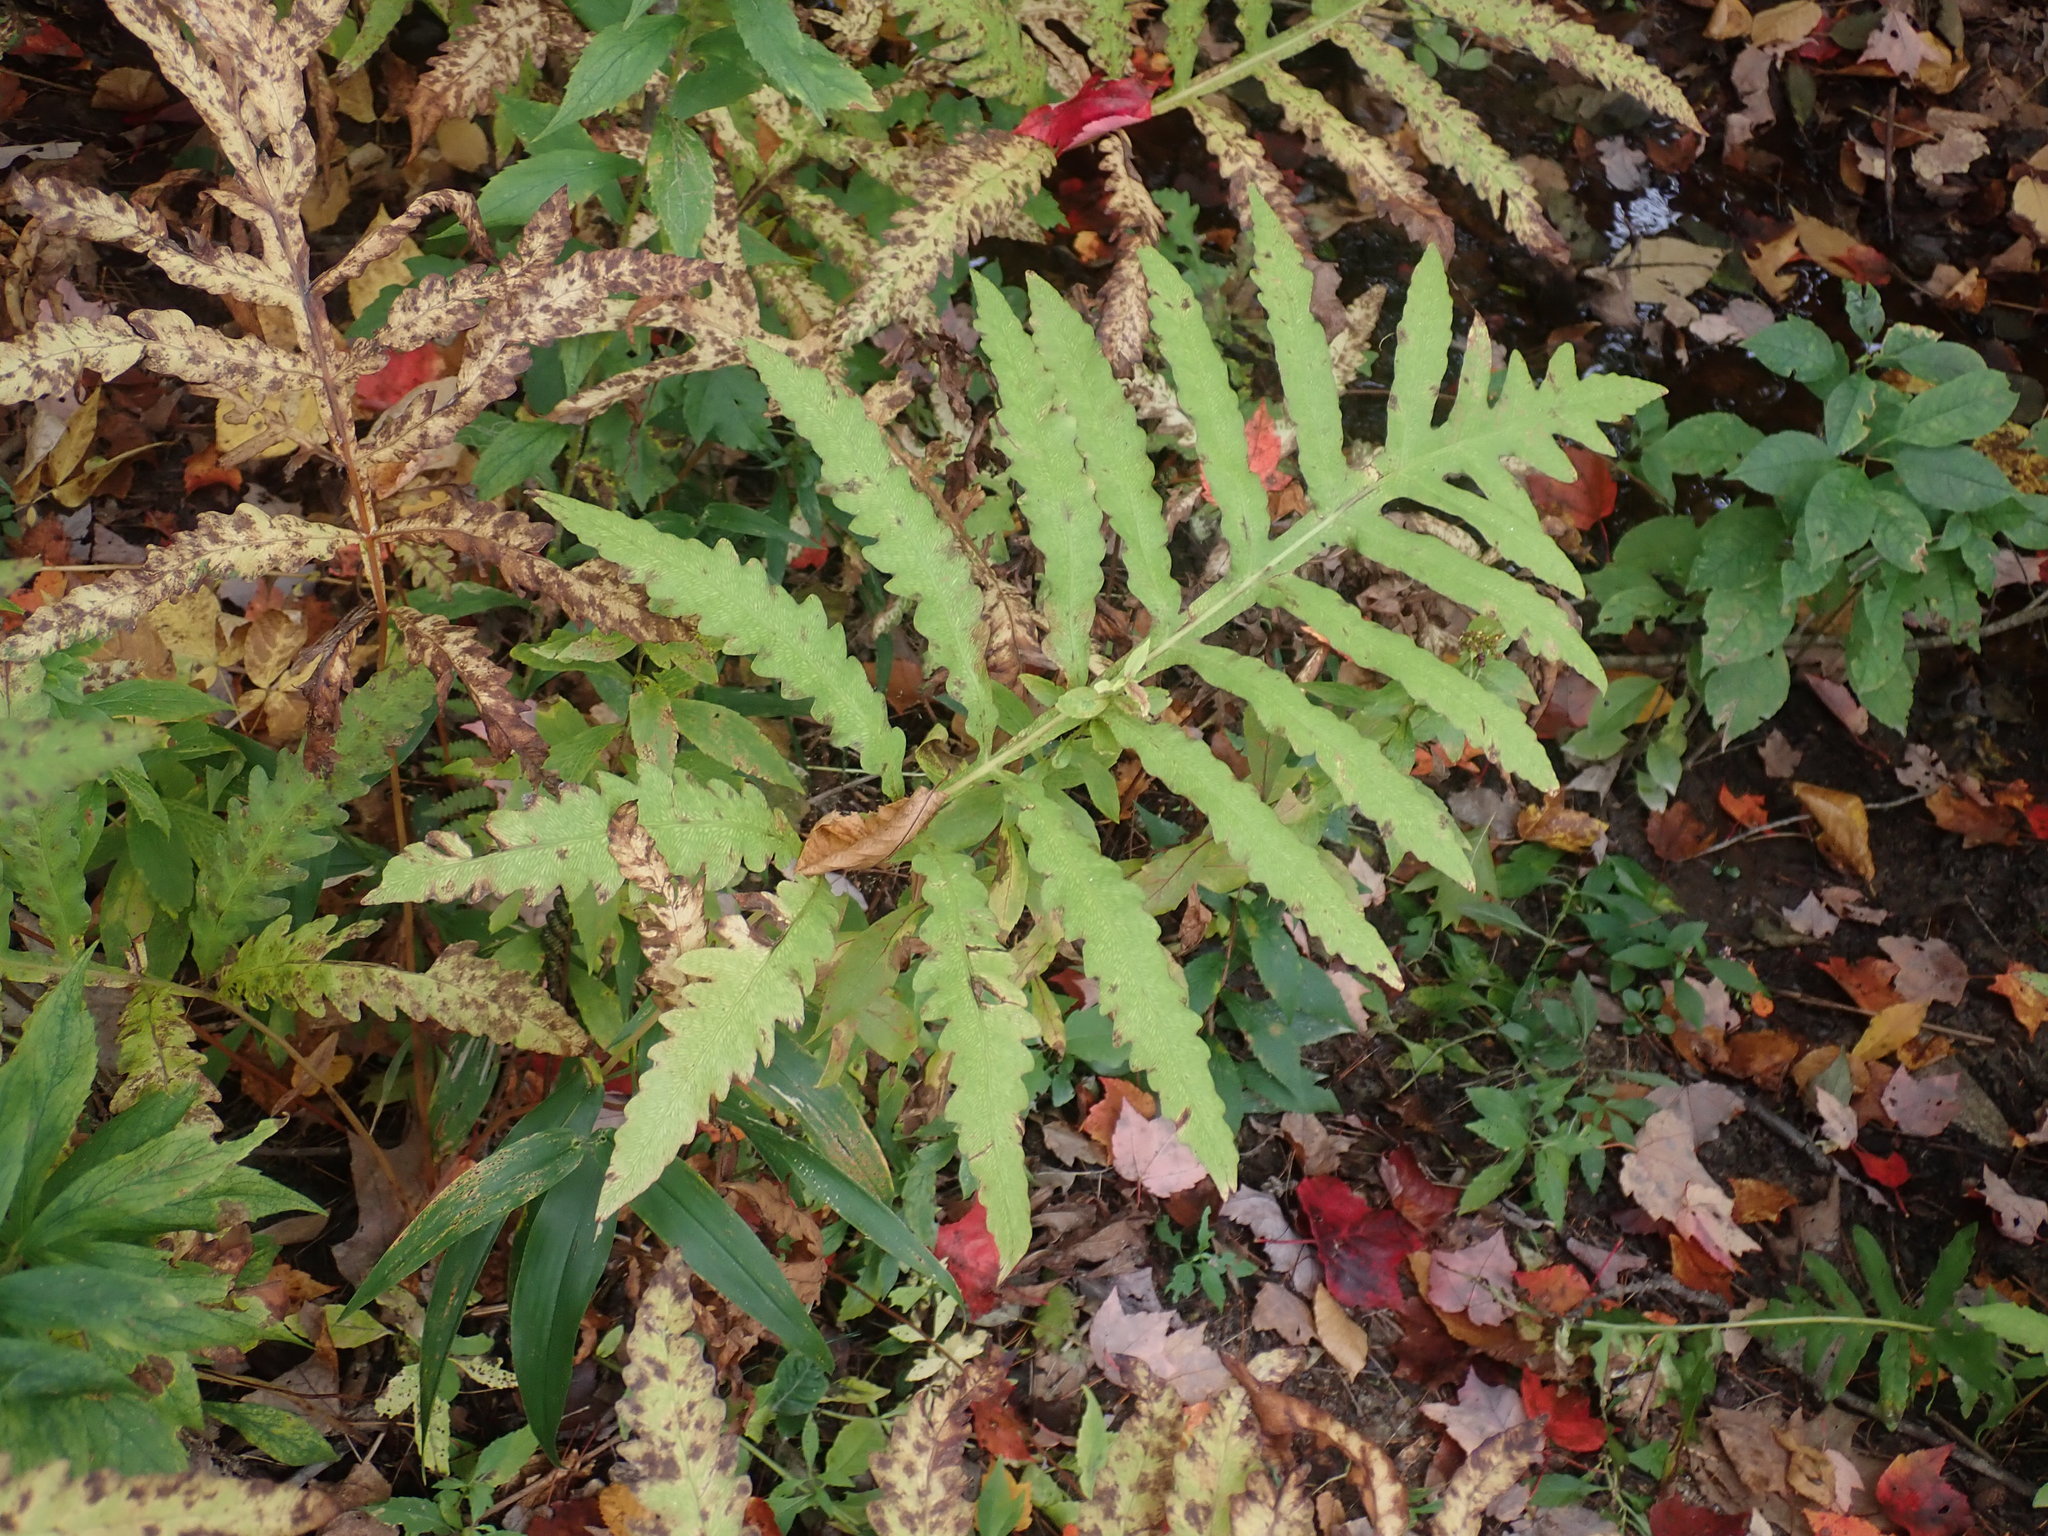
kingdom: Plantae
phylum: Tracheophyta
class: Polypodiopsida
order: Polypodiales
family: Onocleaceae
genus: Onoclea
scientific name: Onoclea sensibilis
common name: Sensitive fern
